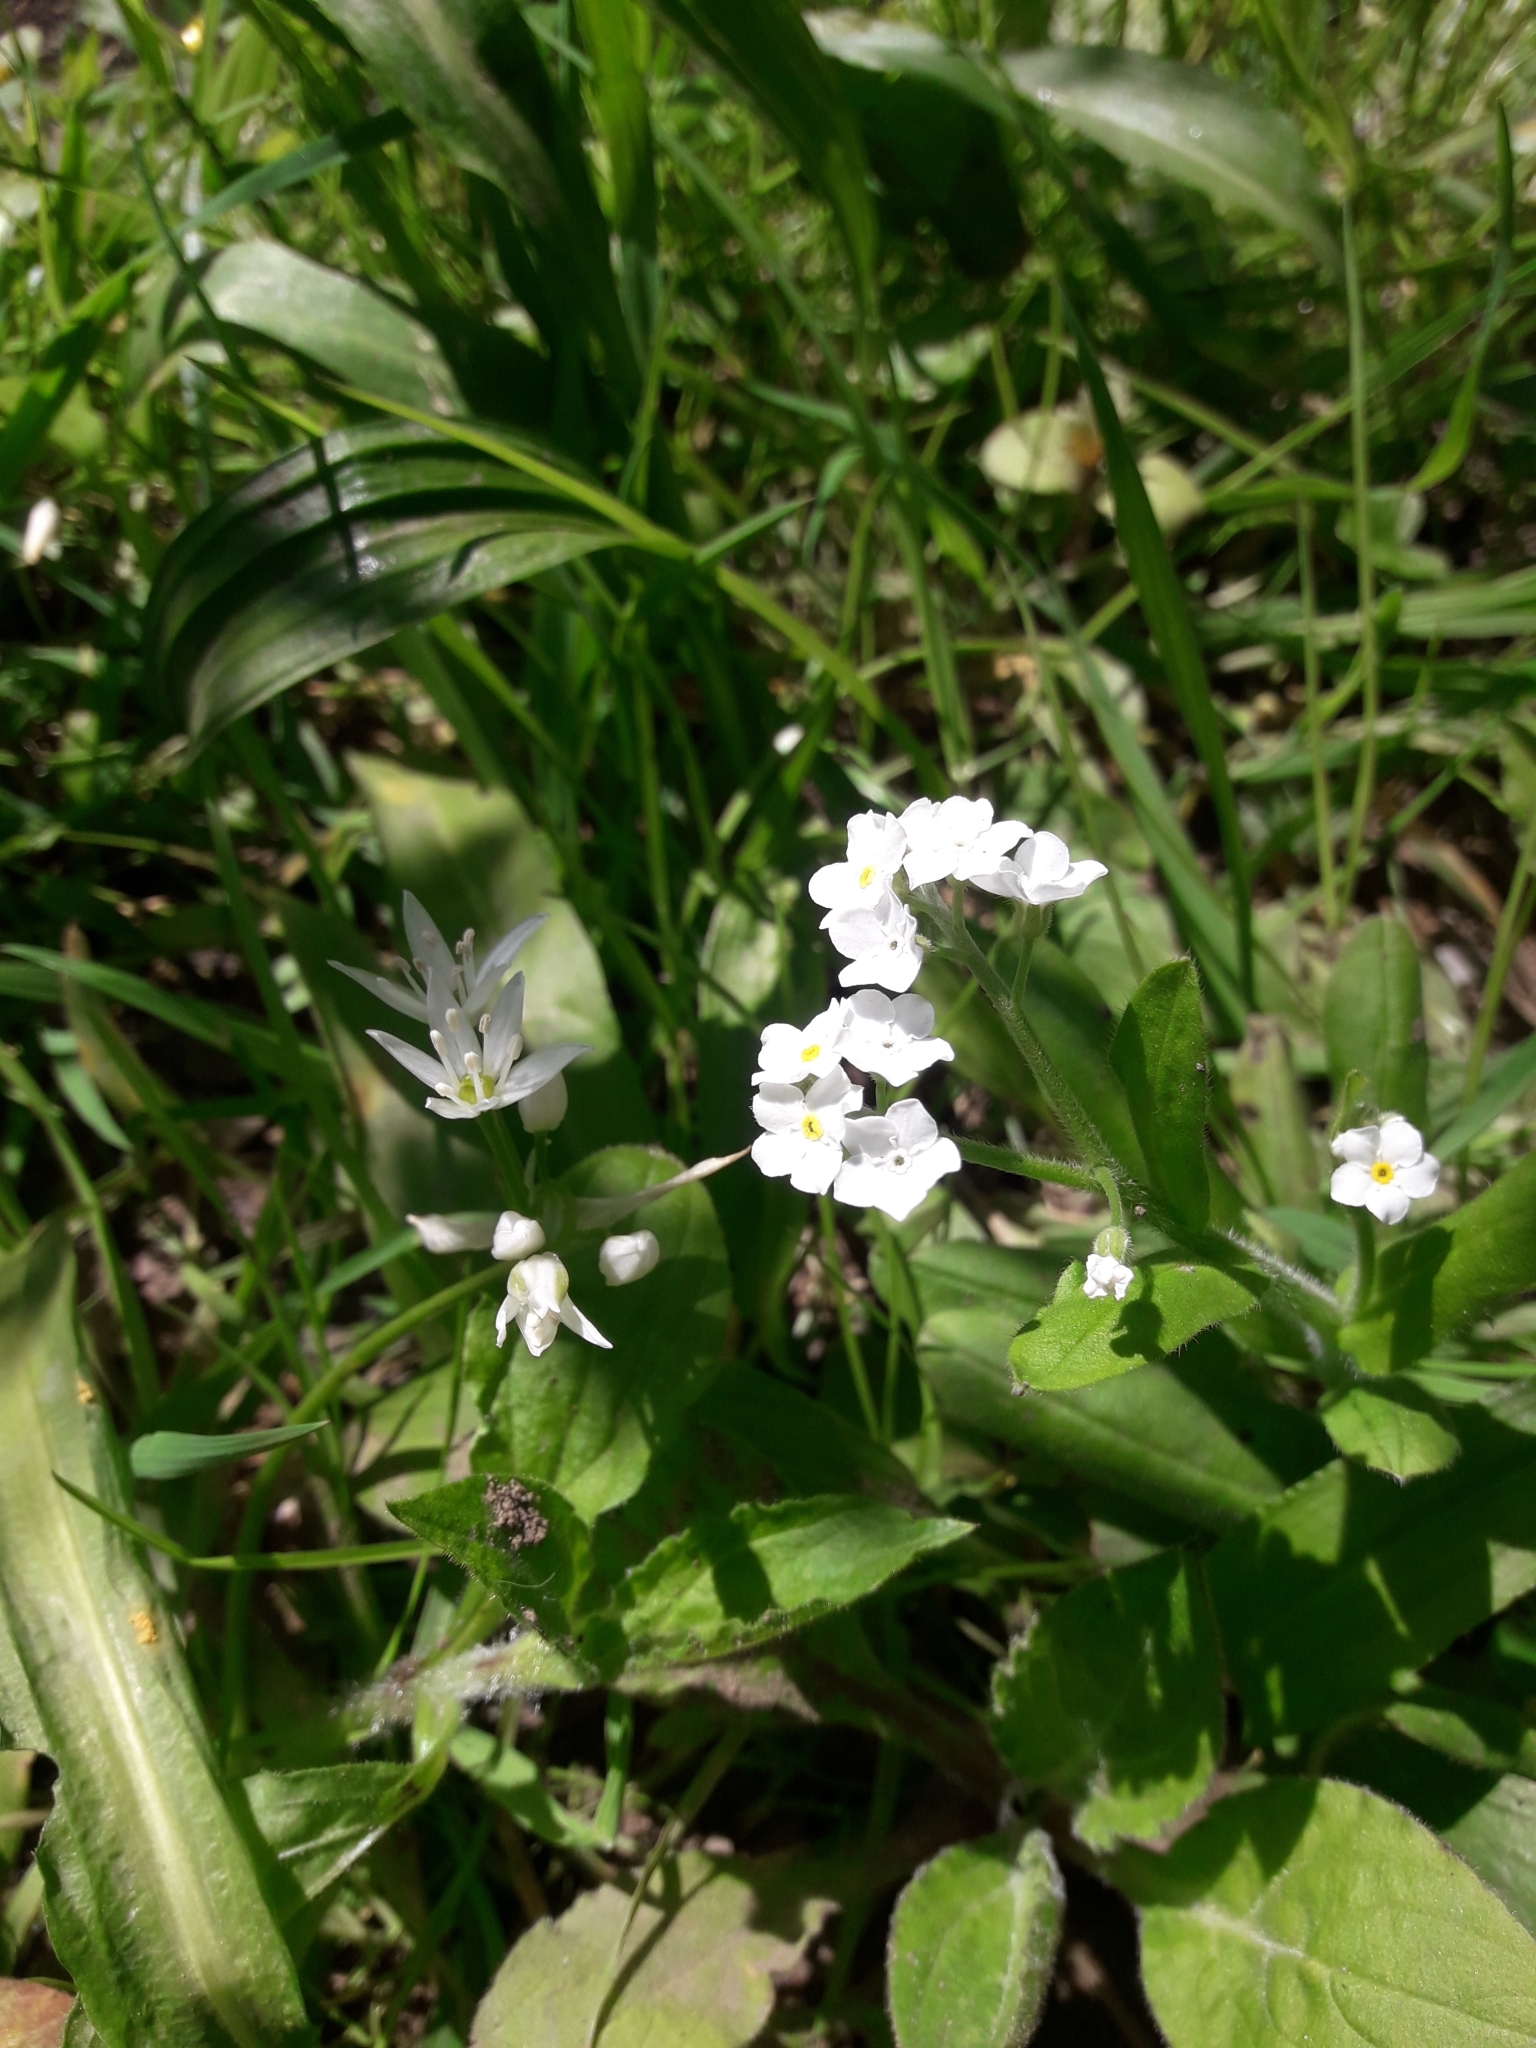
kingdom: Plantae
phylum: Tracheophyta
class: Magnoliopsida
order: Boraginales
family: Boraginaceae
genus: Myosotis
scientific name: Myosotis sylvatica
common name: Wood forget-me-not
